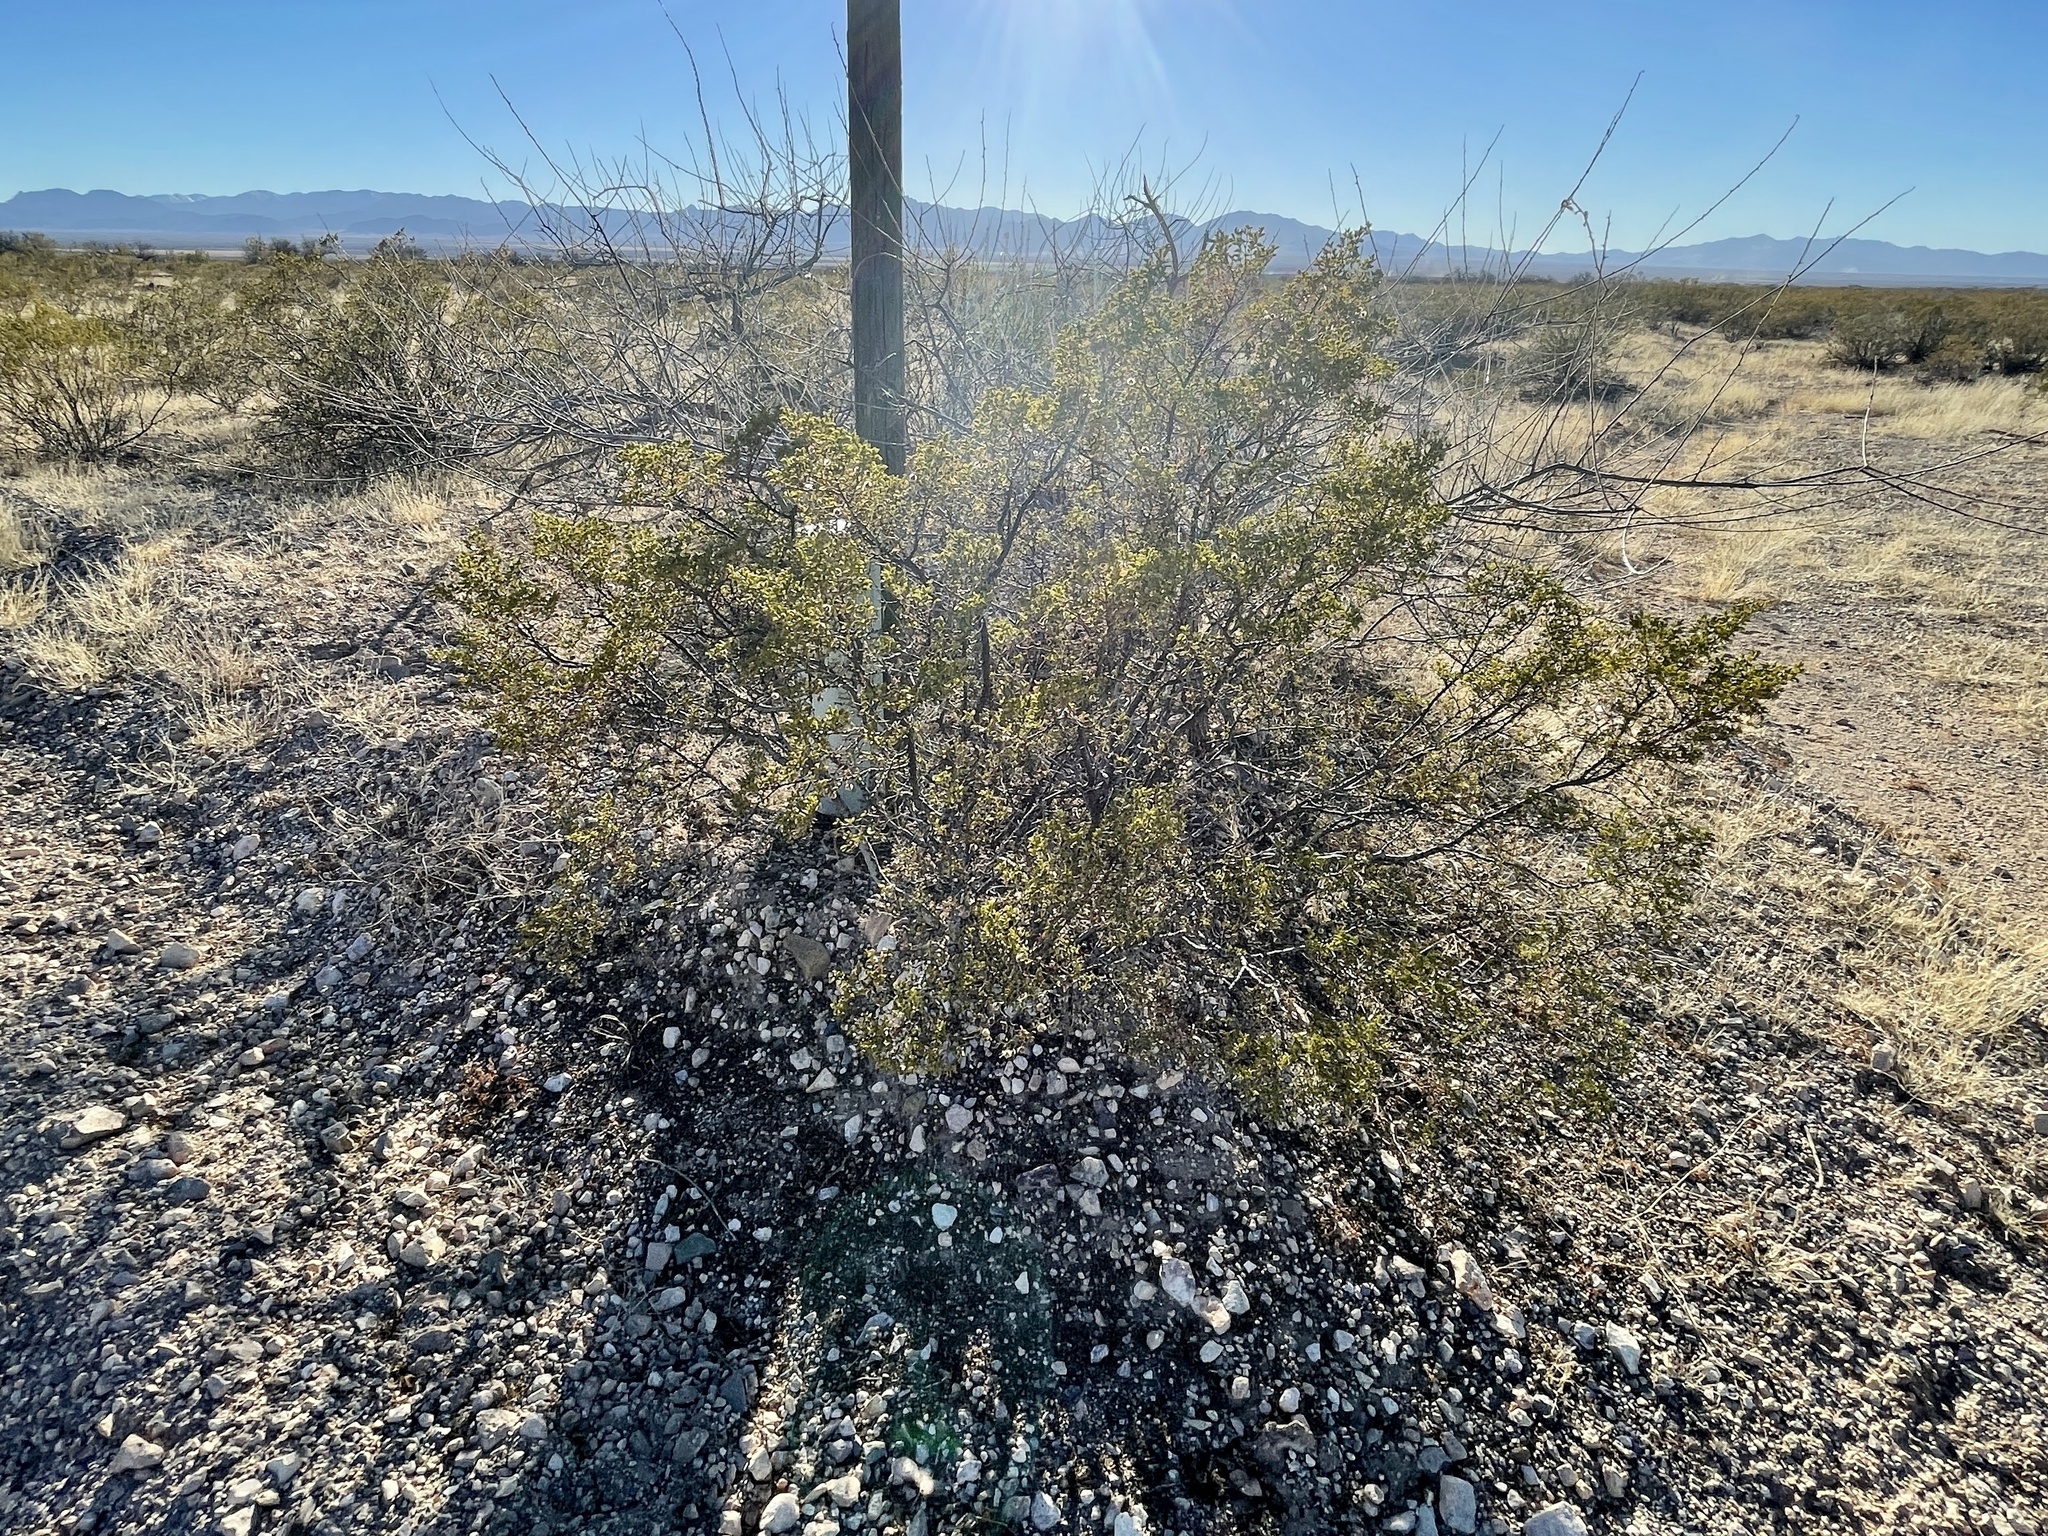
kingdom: Plantae
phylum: Tracheophyta
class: Magnoliopsida
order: Zygophyllales
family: Zygophyllaceae
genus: Larrea
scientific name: Larrea tridentata
